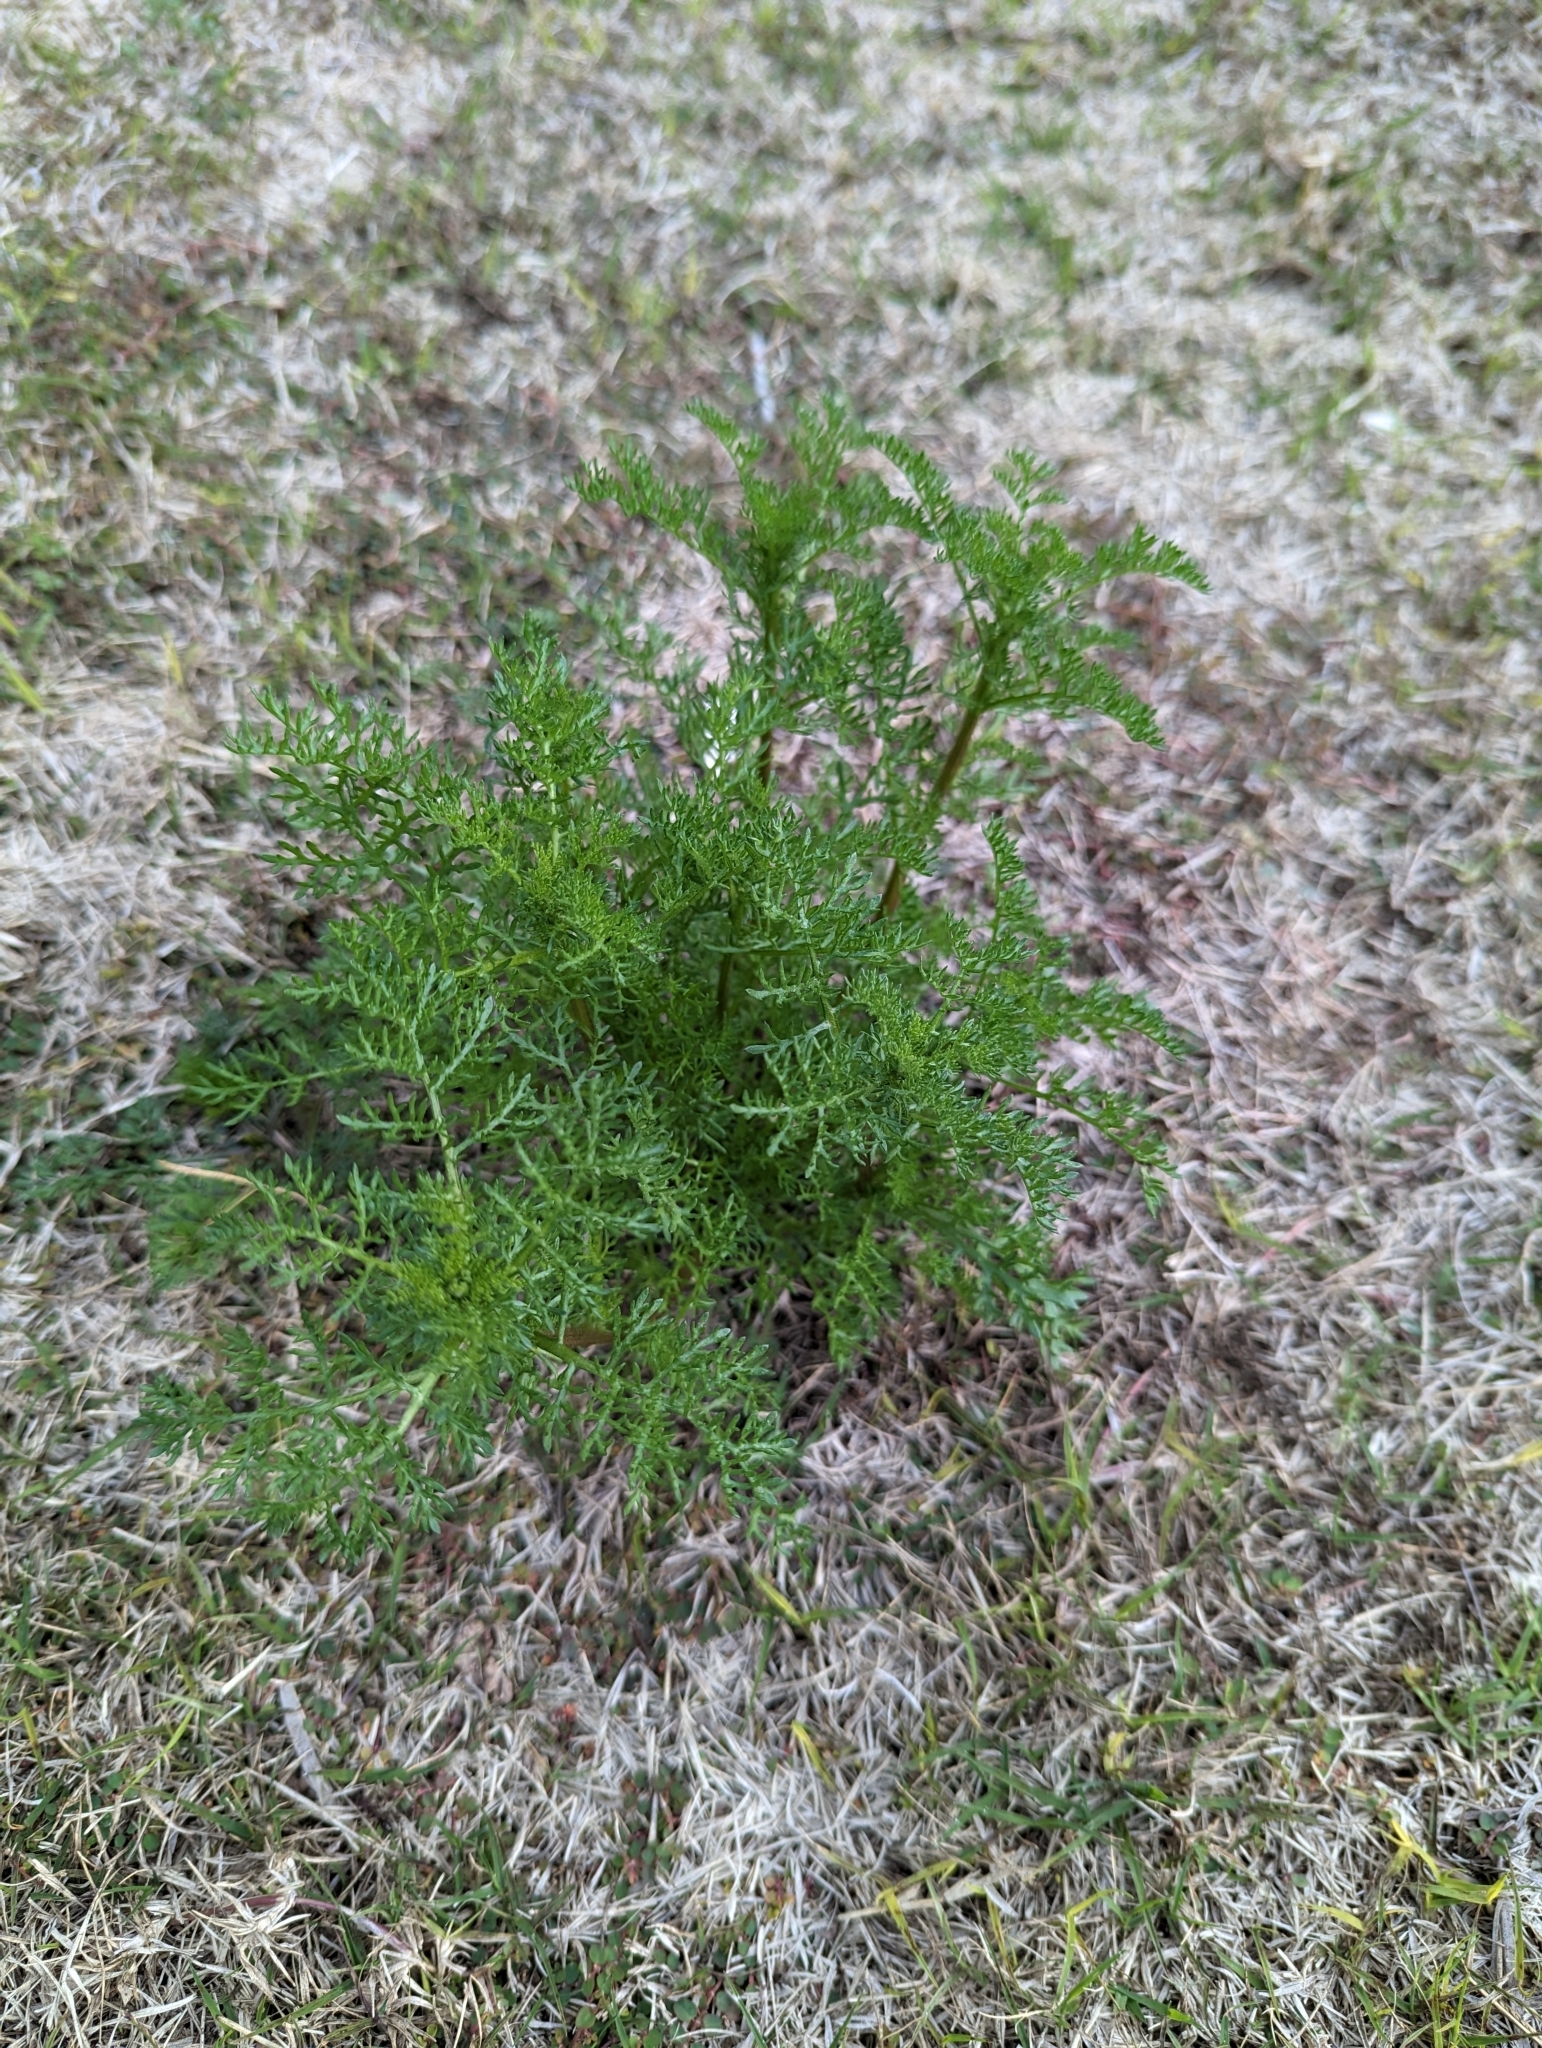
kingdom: Plantae
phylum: Tracheophyta
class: Magnoliopsida
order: Asterales
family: Asteraceae
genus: Oncosiphon
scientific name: Oncosiphon pilulifer
